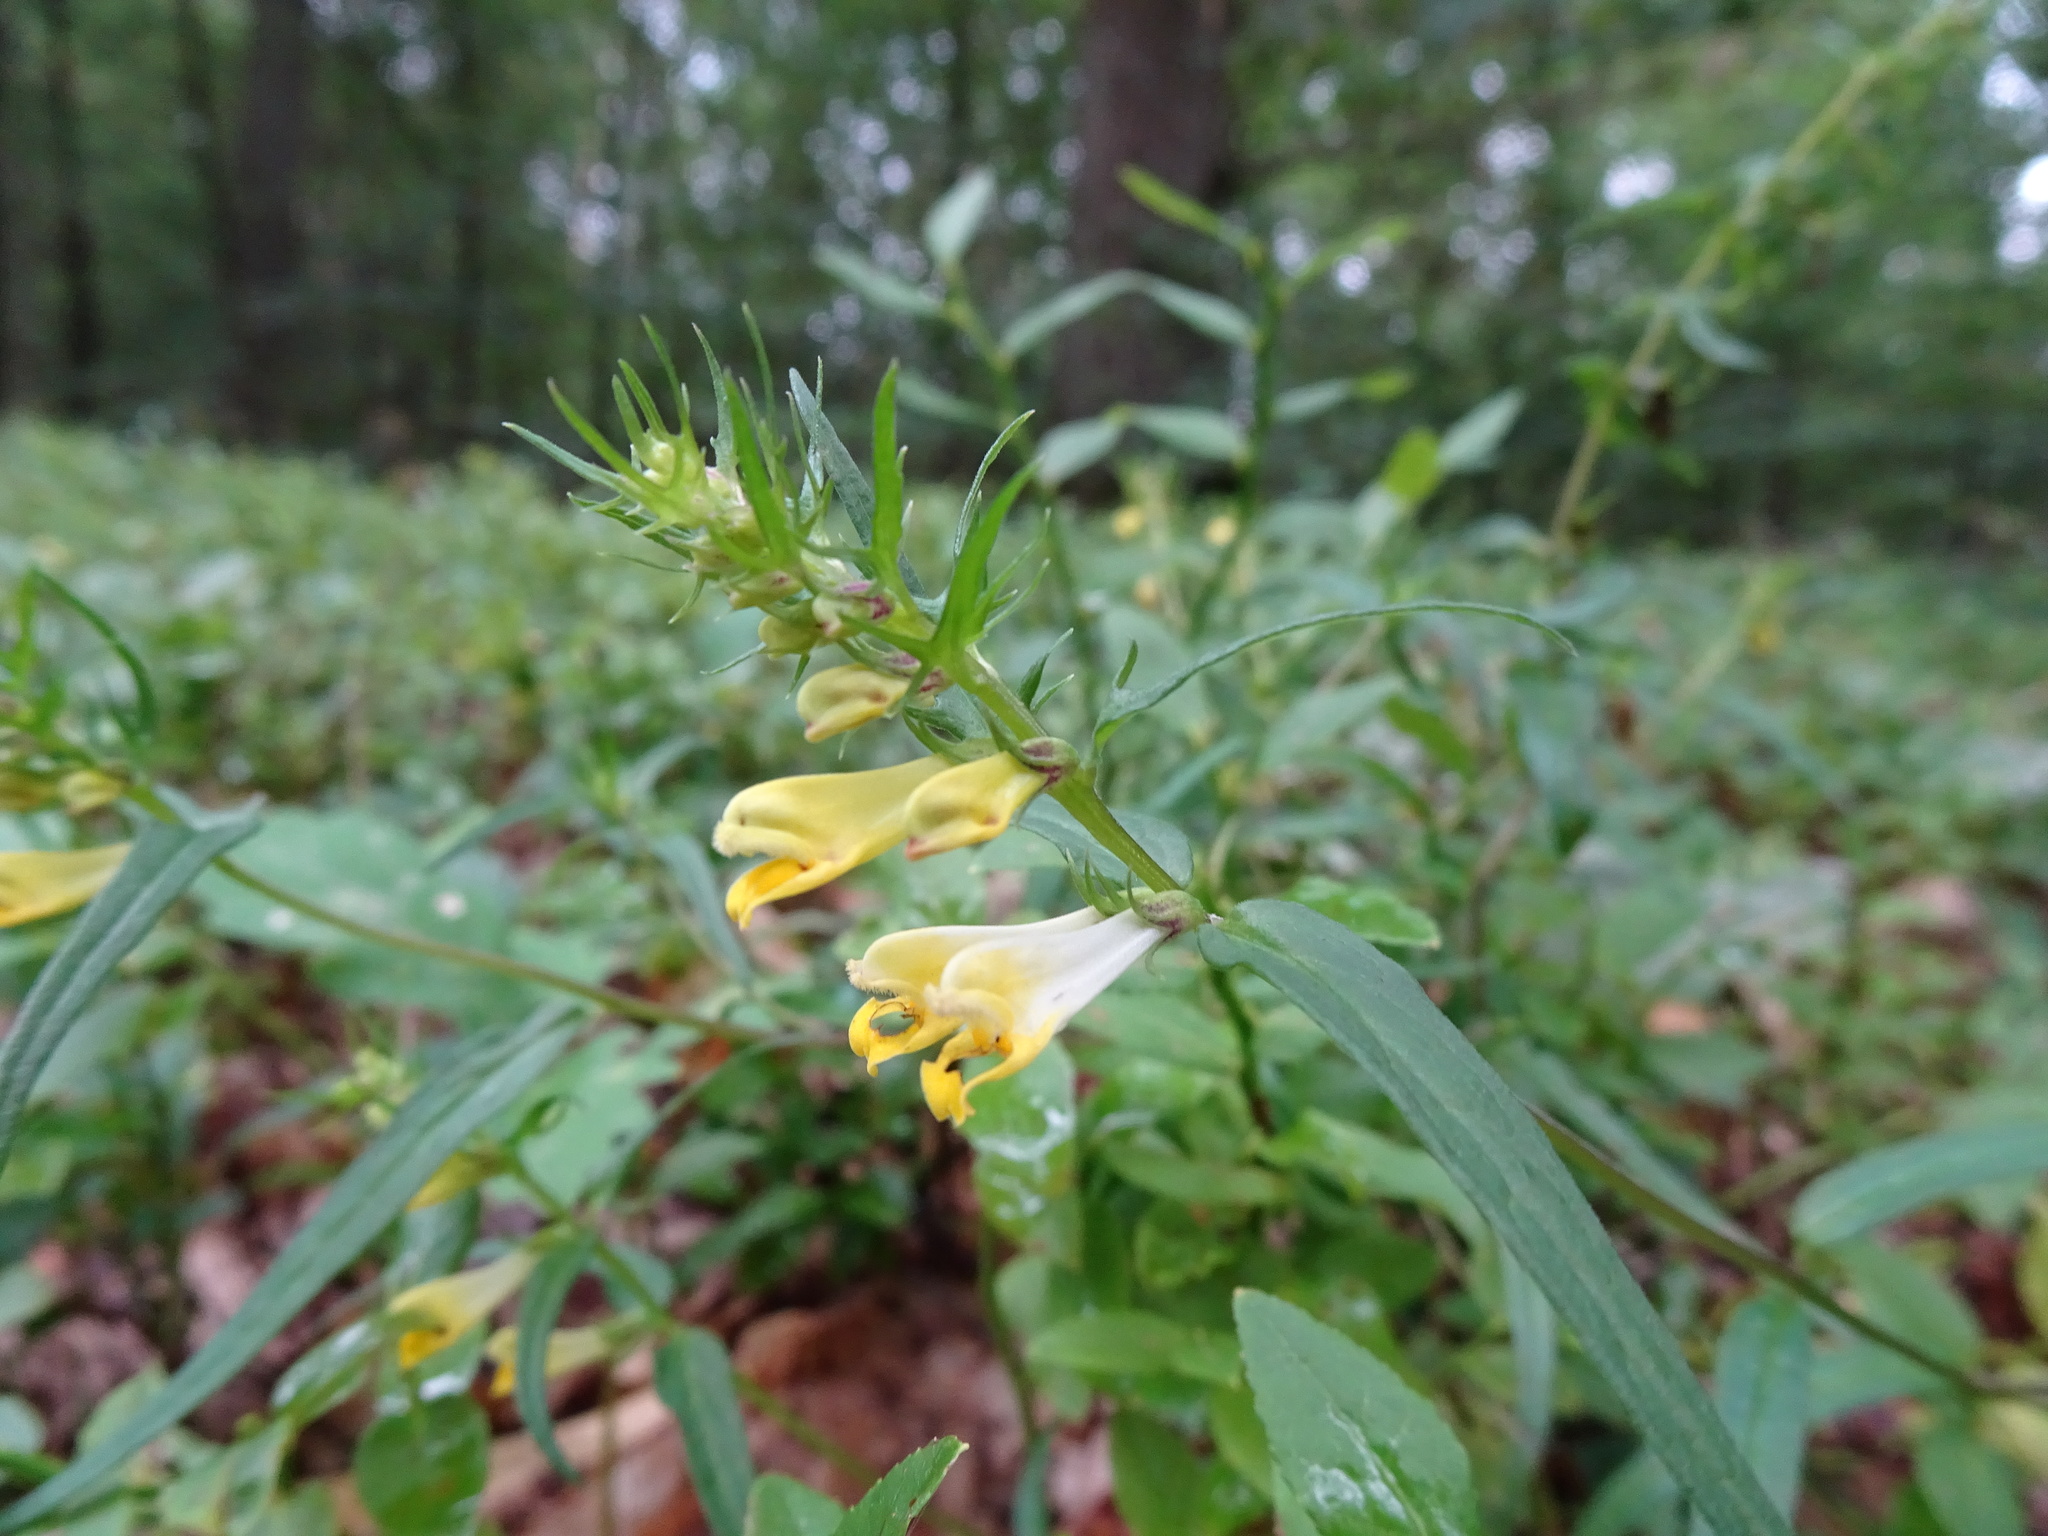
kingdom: Plantae
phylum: Tracheophyta
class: Magnoliopsida
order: Lamiales
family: Orobanchaceae
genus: Melampyrum
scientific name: Melampyrum pratense
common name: Common cow-wheat
